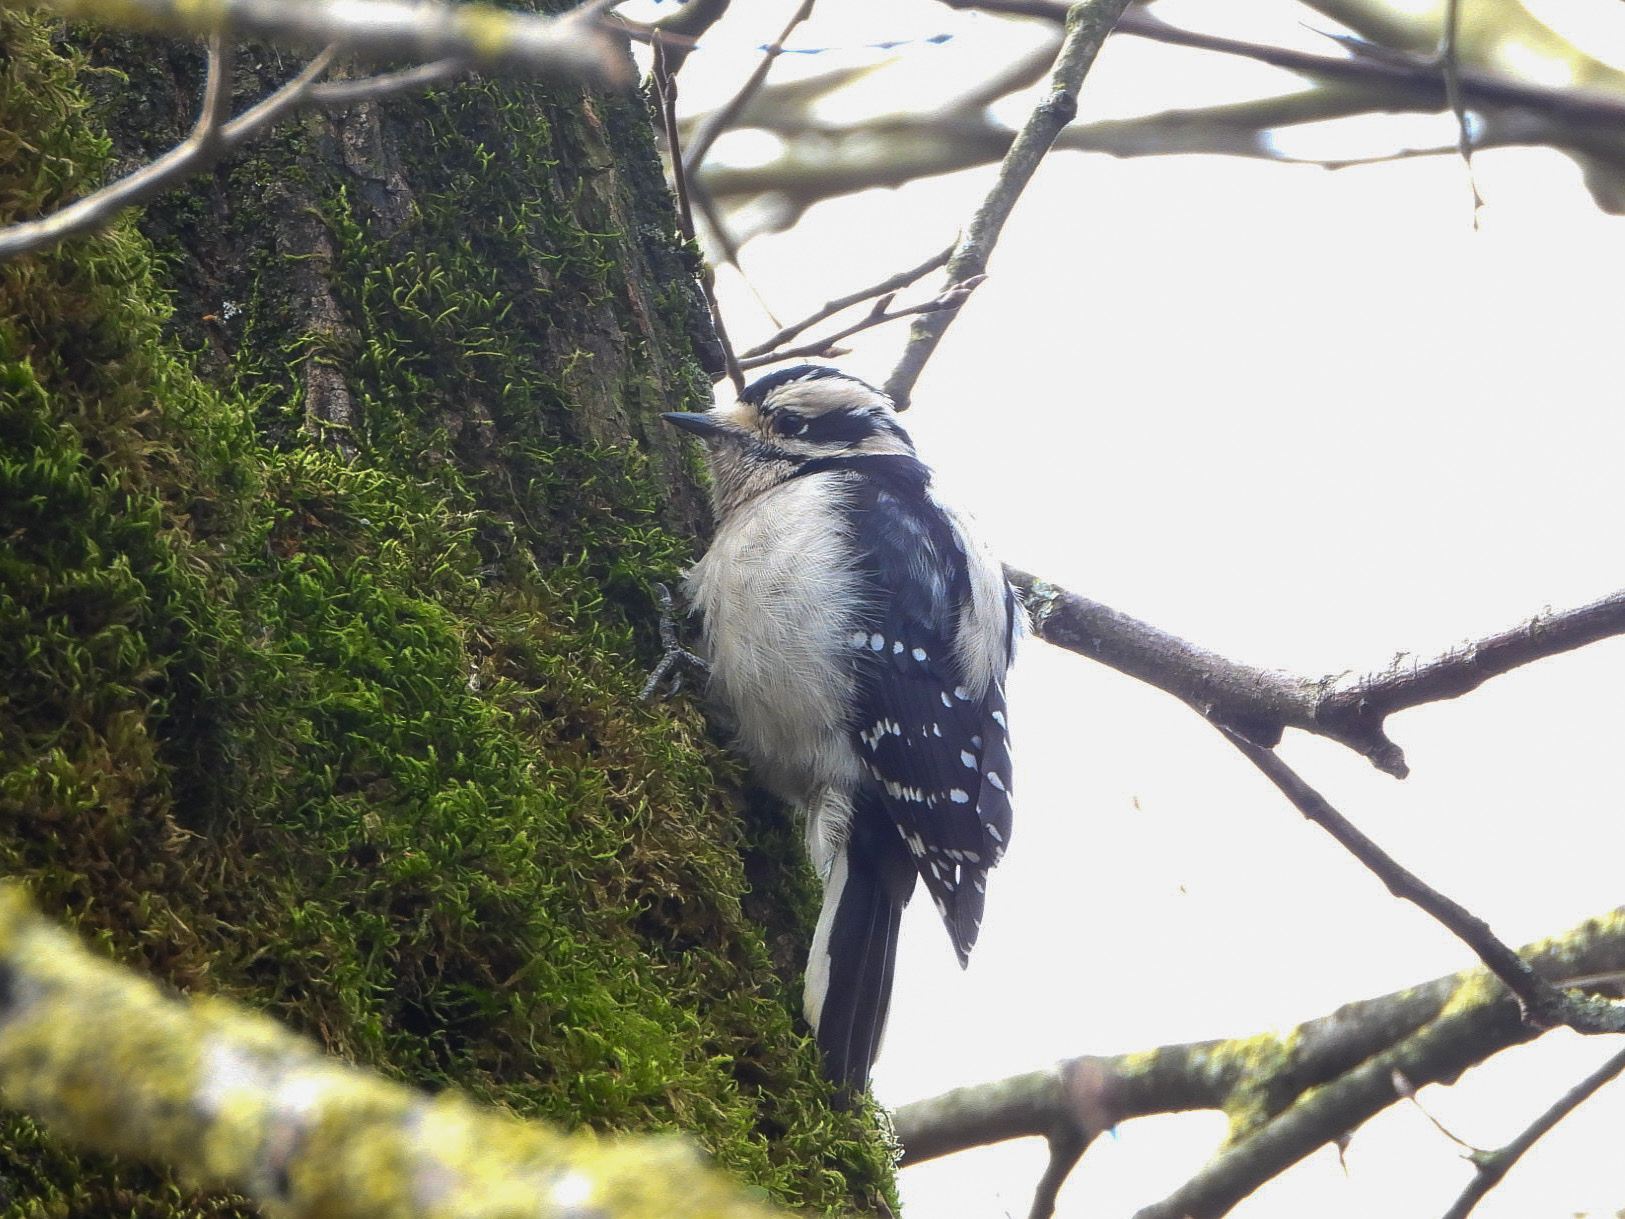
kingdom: Animalia
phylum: Chordata
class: Aves
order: Piciformes
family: Picidae
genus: Dryobates
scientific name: Dryobates pubescens
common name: Downy woodpecker
